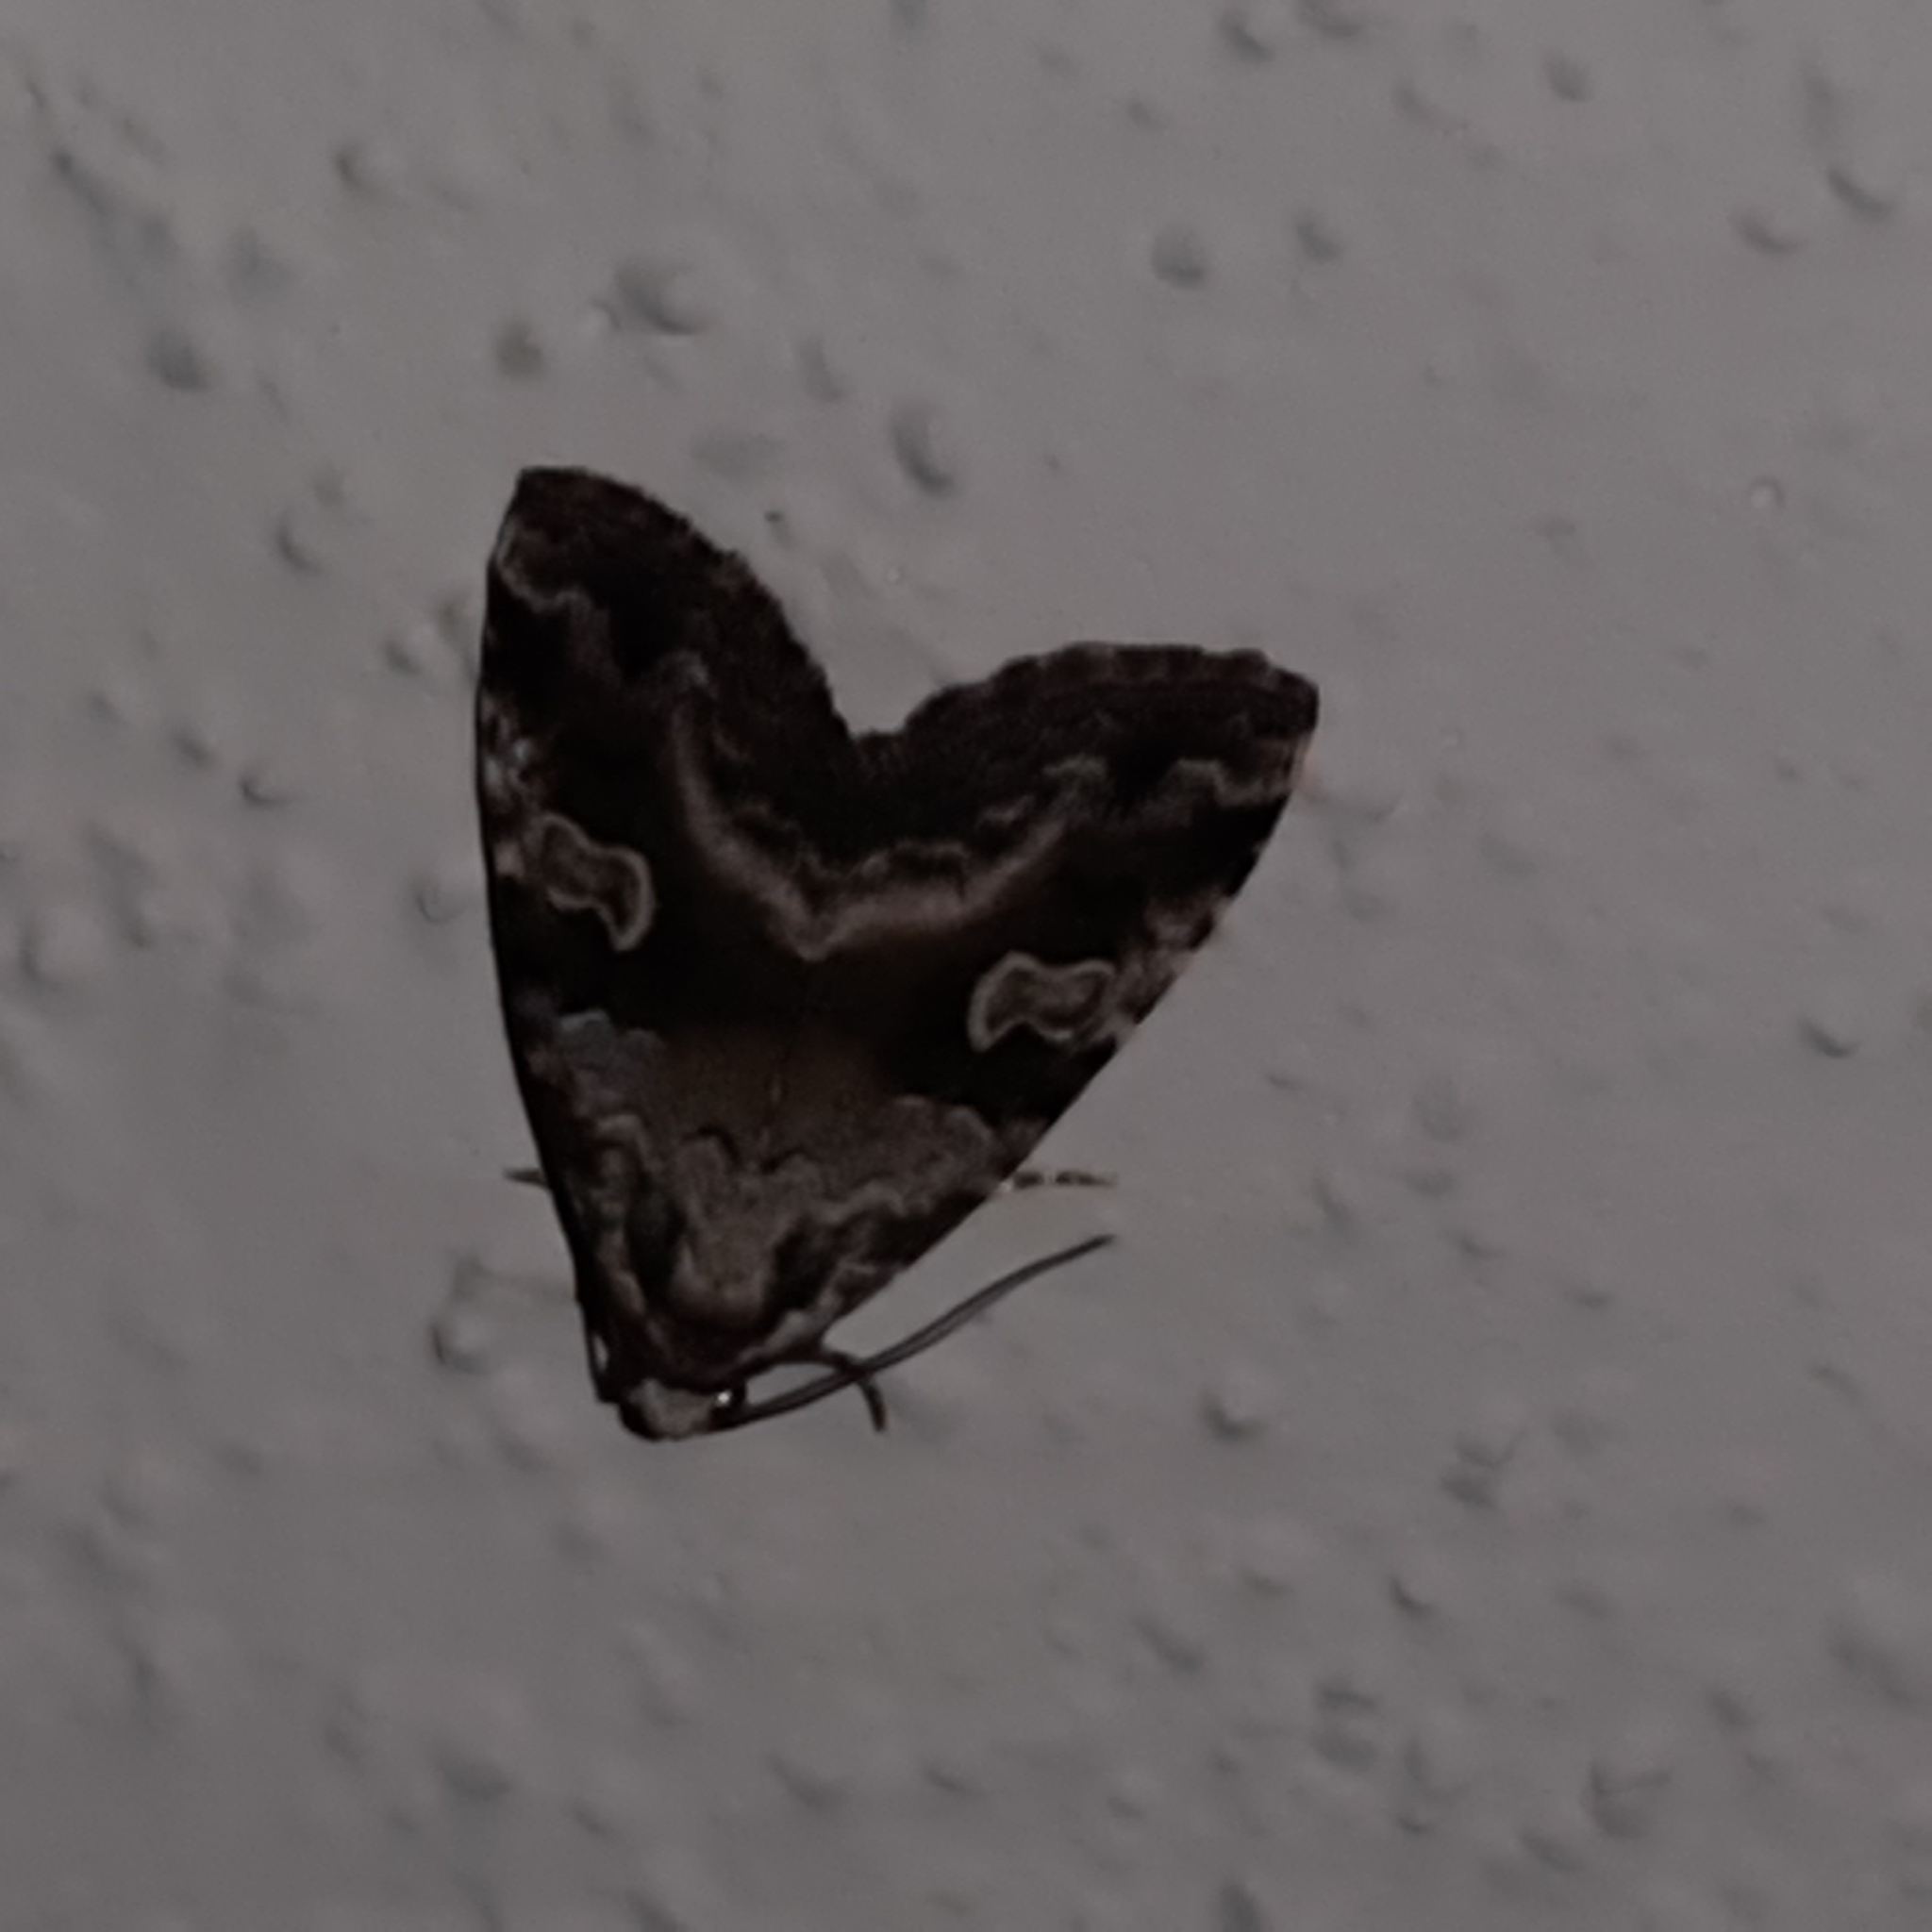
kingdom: Animalia
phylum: Arthropoda
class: Insecta
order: Lepidoptera
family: Noctuidae
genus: Mictochroa
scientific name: Mictochroa zonella
